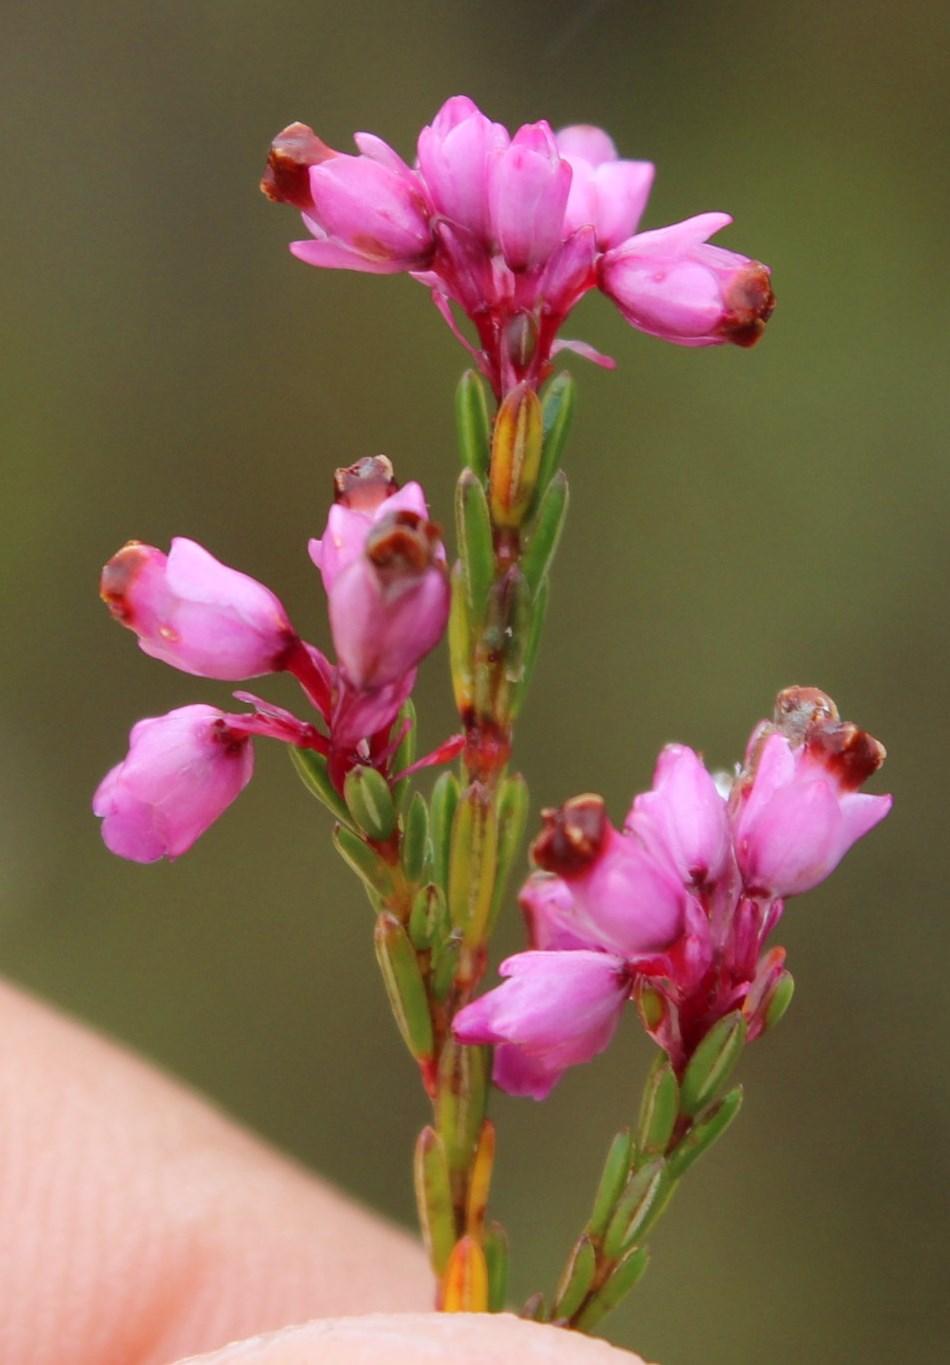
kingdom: Plantae
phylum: Tracheophyta
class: Magnoliopsida
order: Ericales
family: Ericaceae
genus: Erica
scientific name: Erica corifolia
